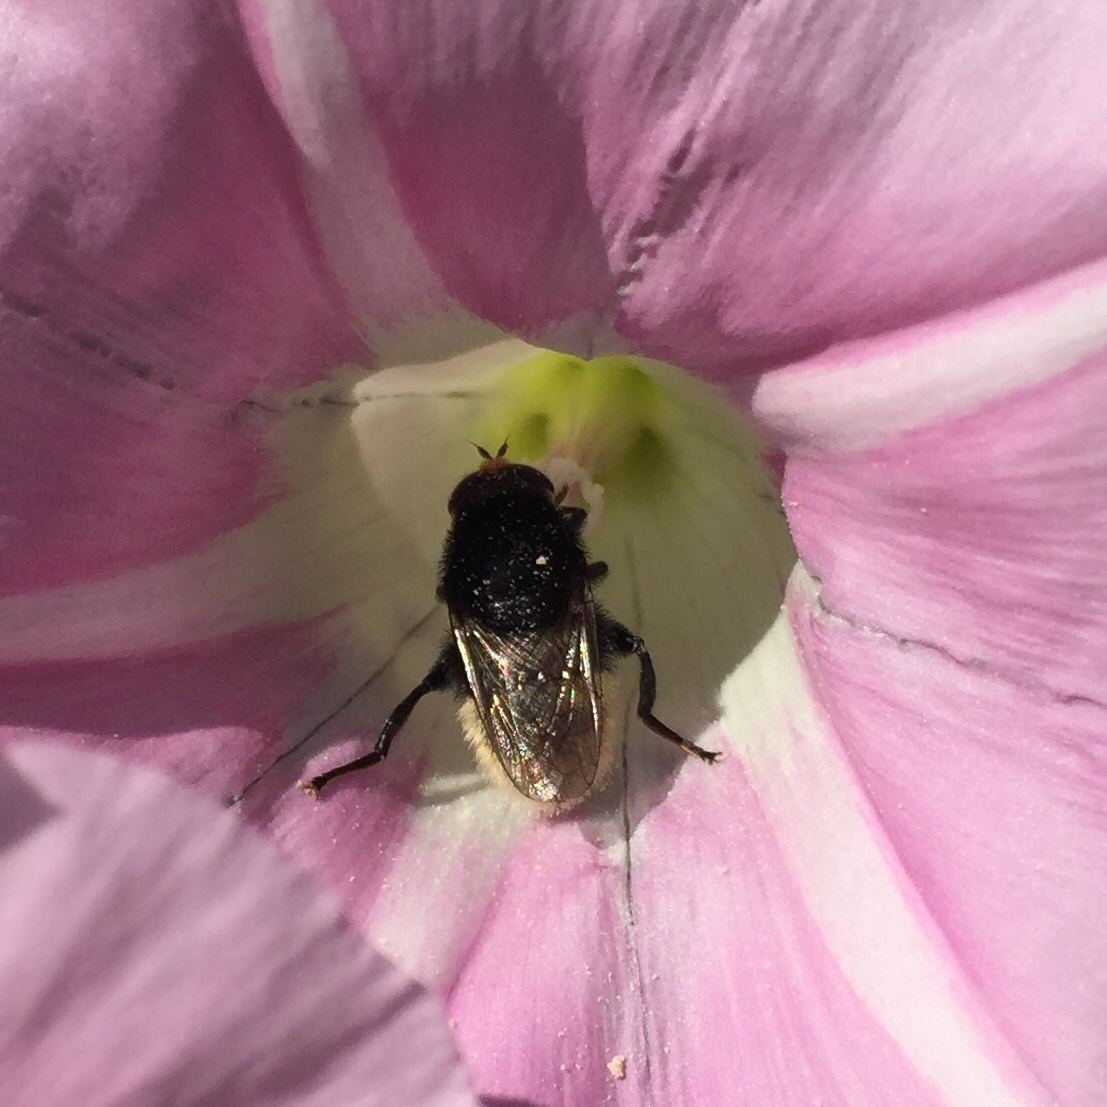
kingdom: Animalia
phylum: Arthropoda
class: Insecta
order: Diptera
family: Syrphidae
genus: Merodon
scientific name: Merodon equestris
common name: Greater bulb-fly
